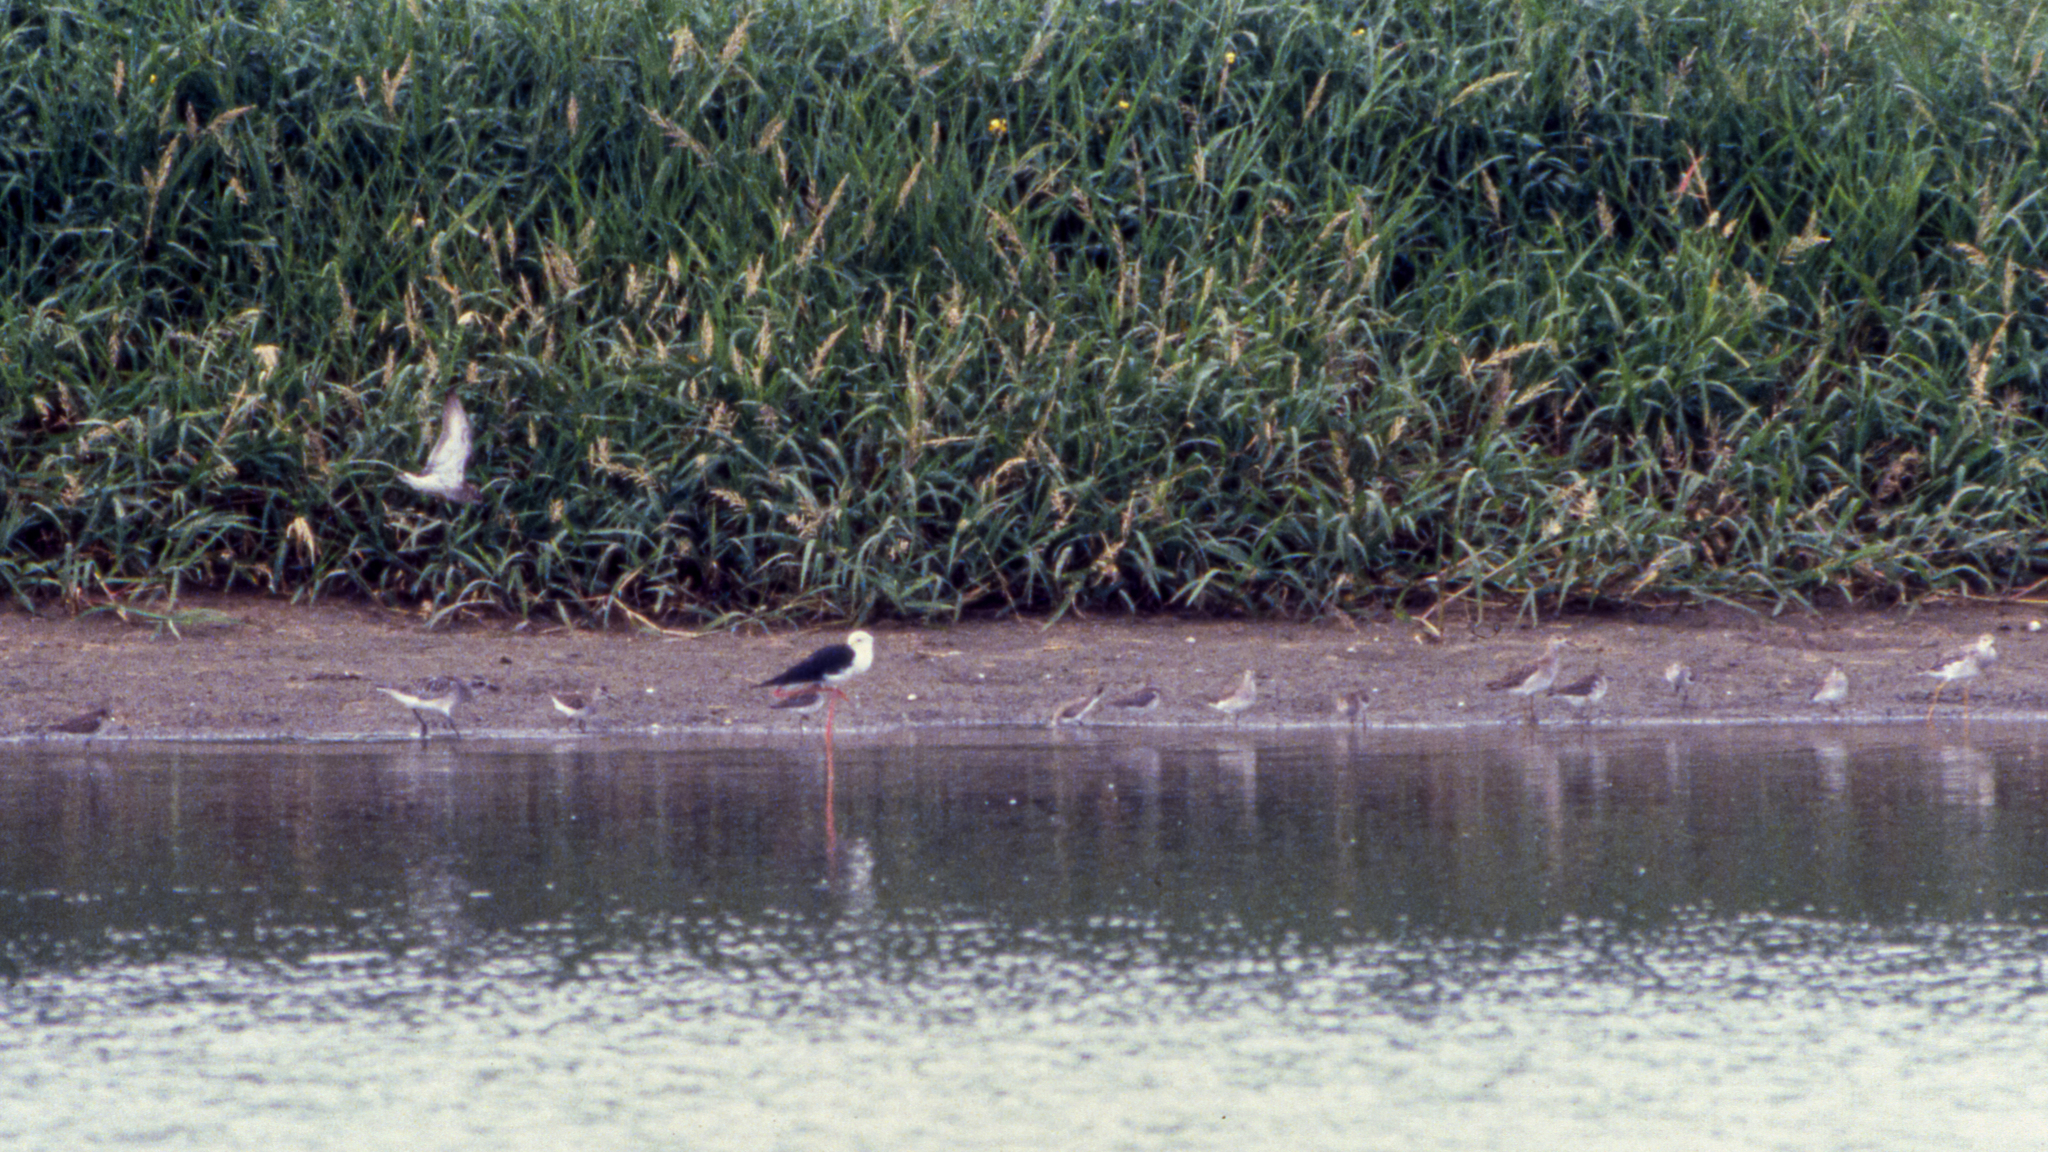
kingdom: Animalia
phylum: Chordata
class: Aves
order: Charadriiformes
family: Recurvirostridae
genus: Himantopus
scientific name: Himantopus himantopus
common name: Black-winged stilt
